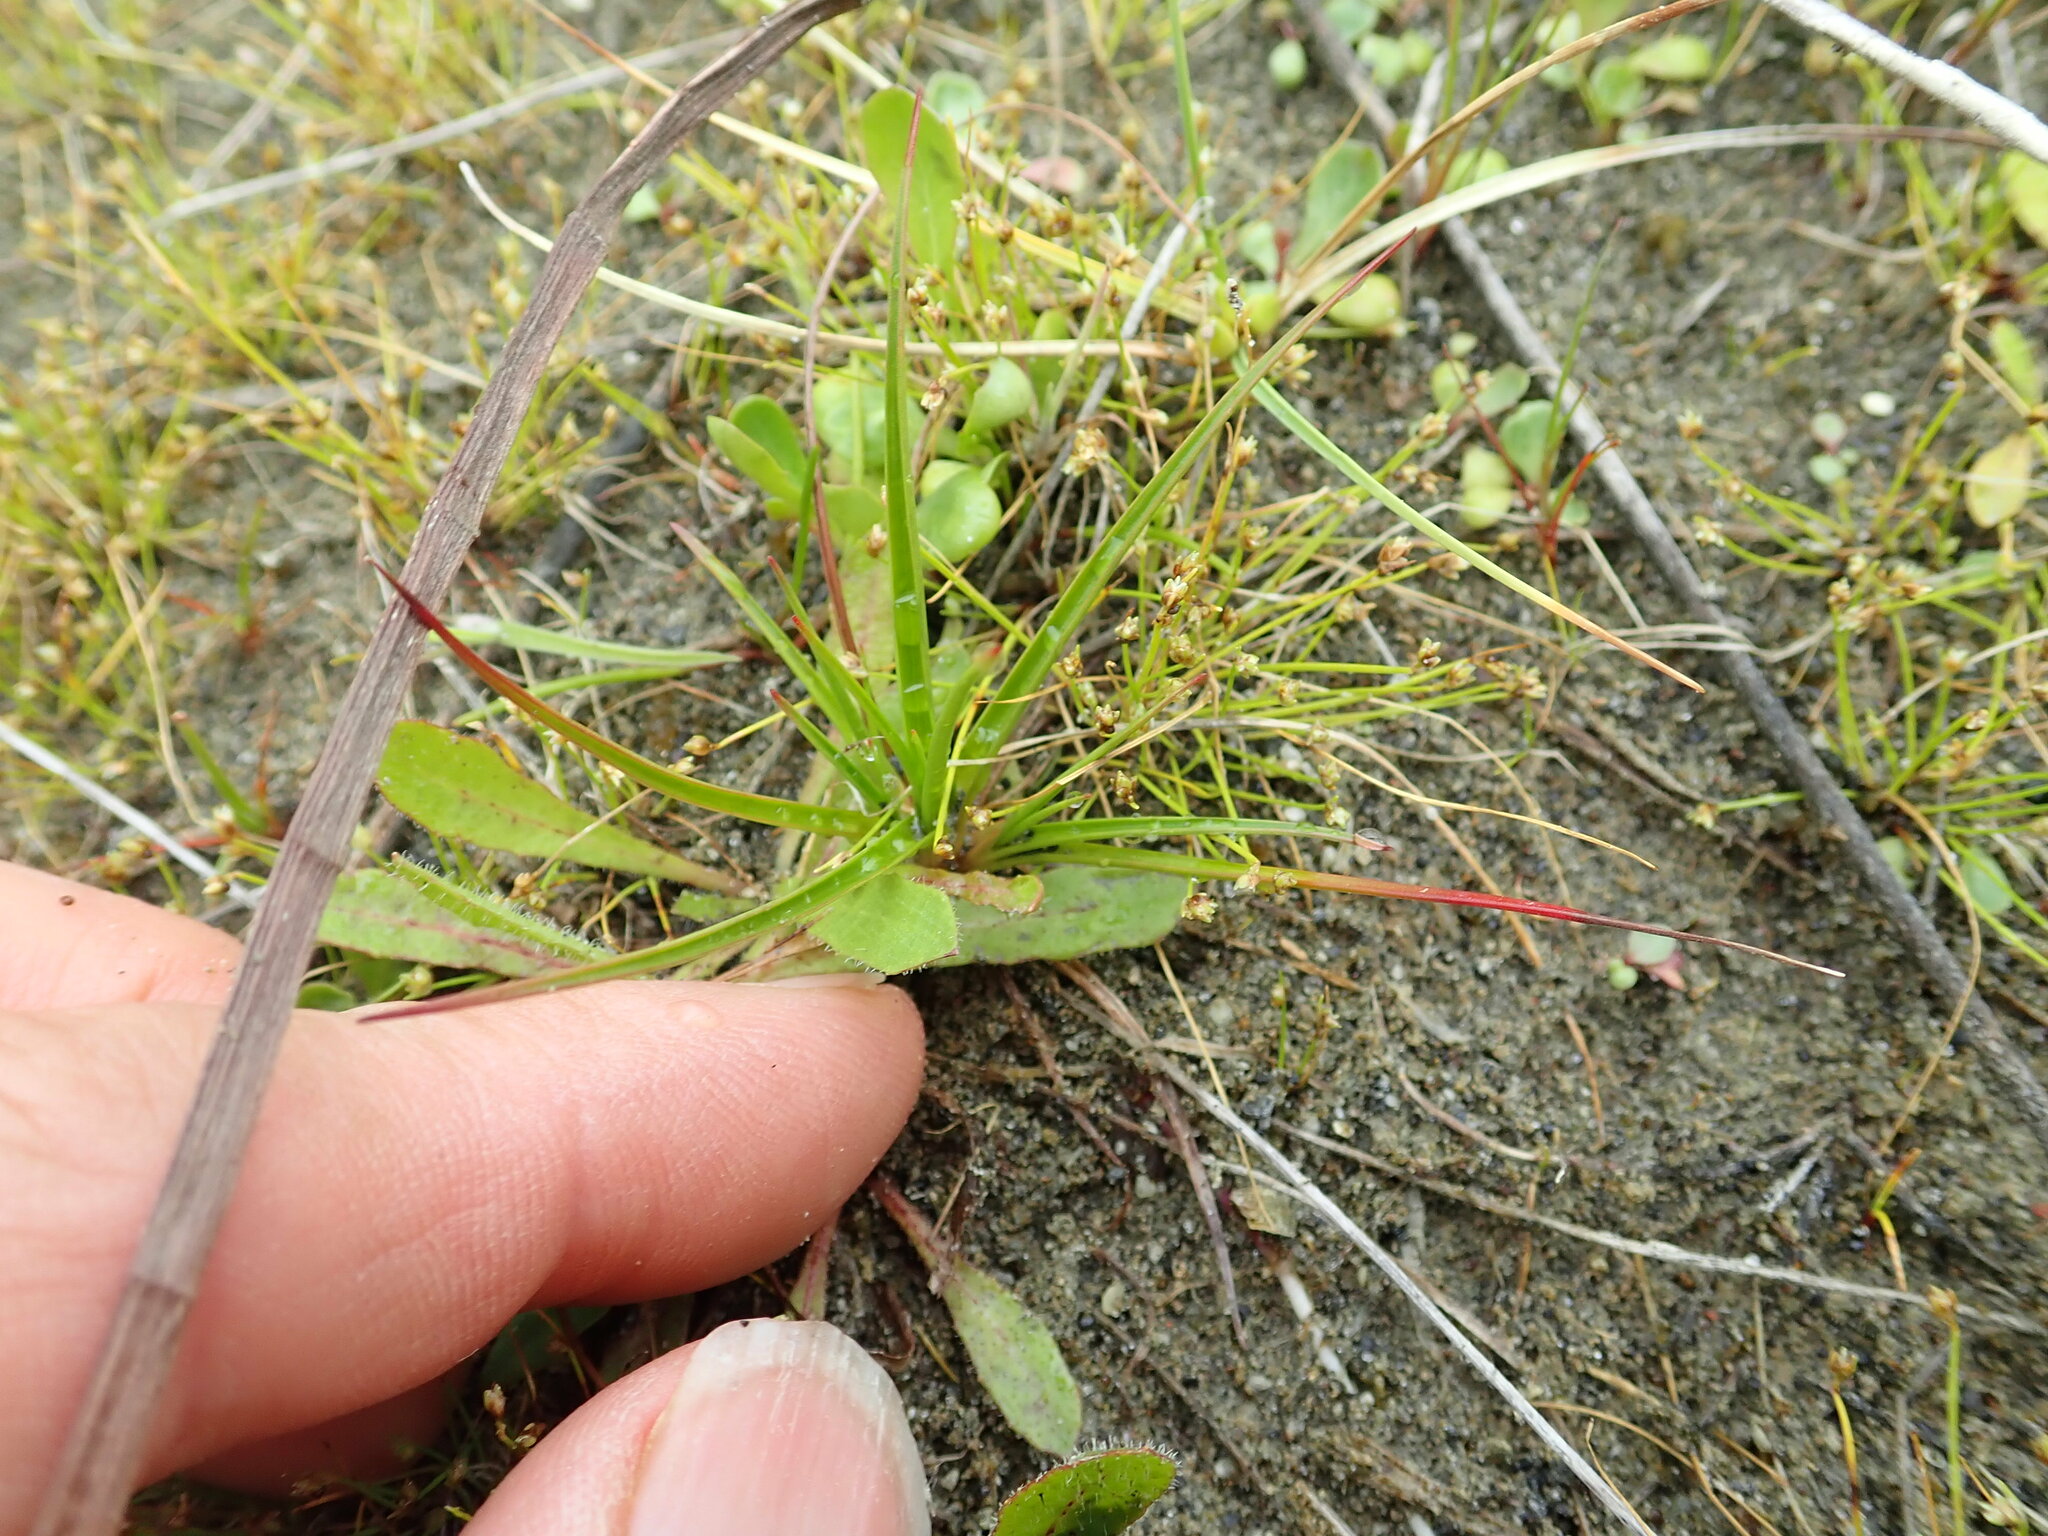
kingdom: Plantae
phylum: Tracheophyta
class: Liliopsida
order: Poales
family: Juncaceae
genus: Juncus
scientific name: Juncus caespiticius
